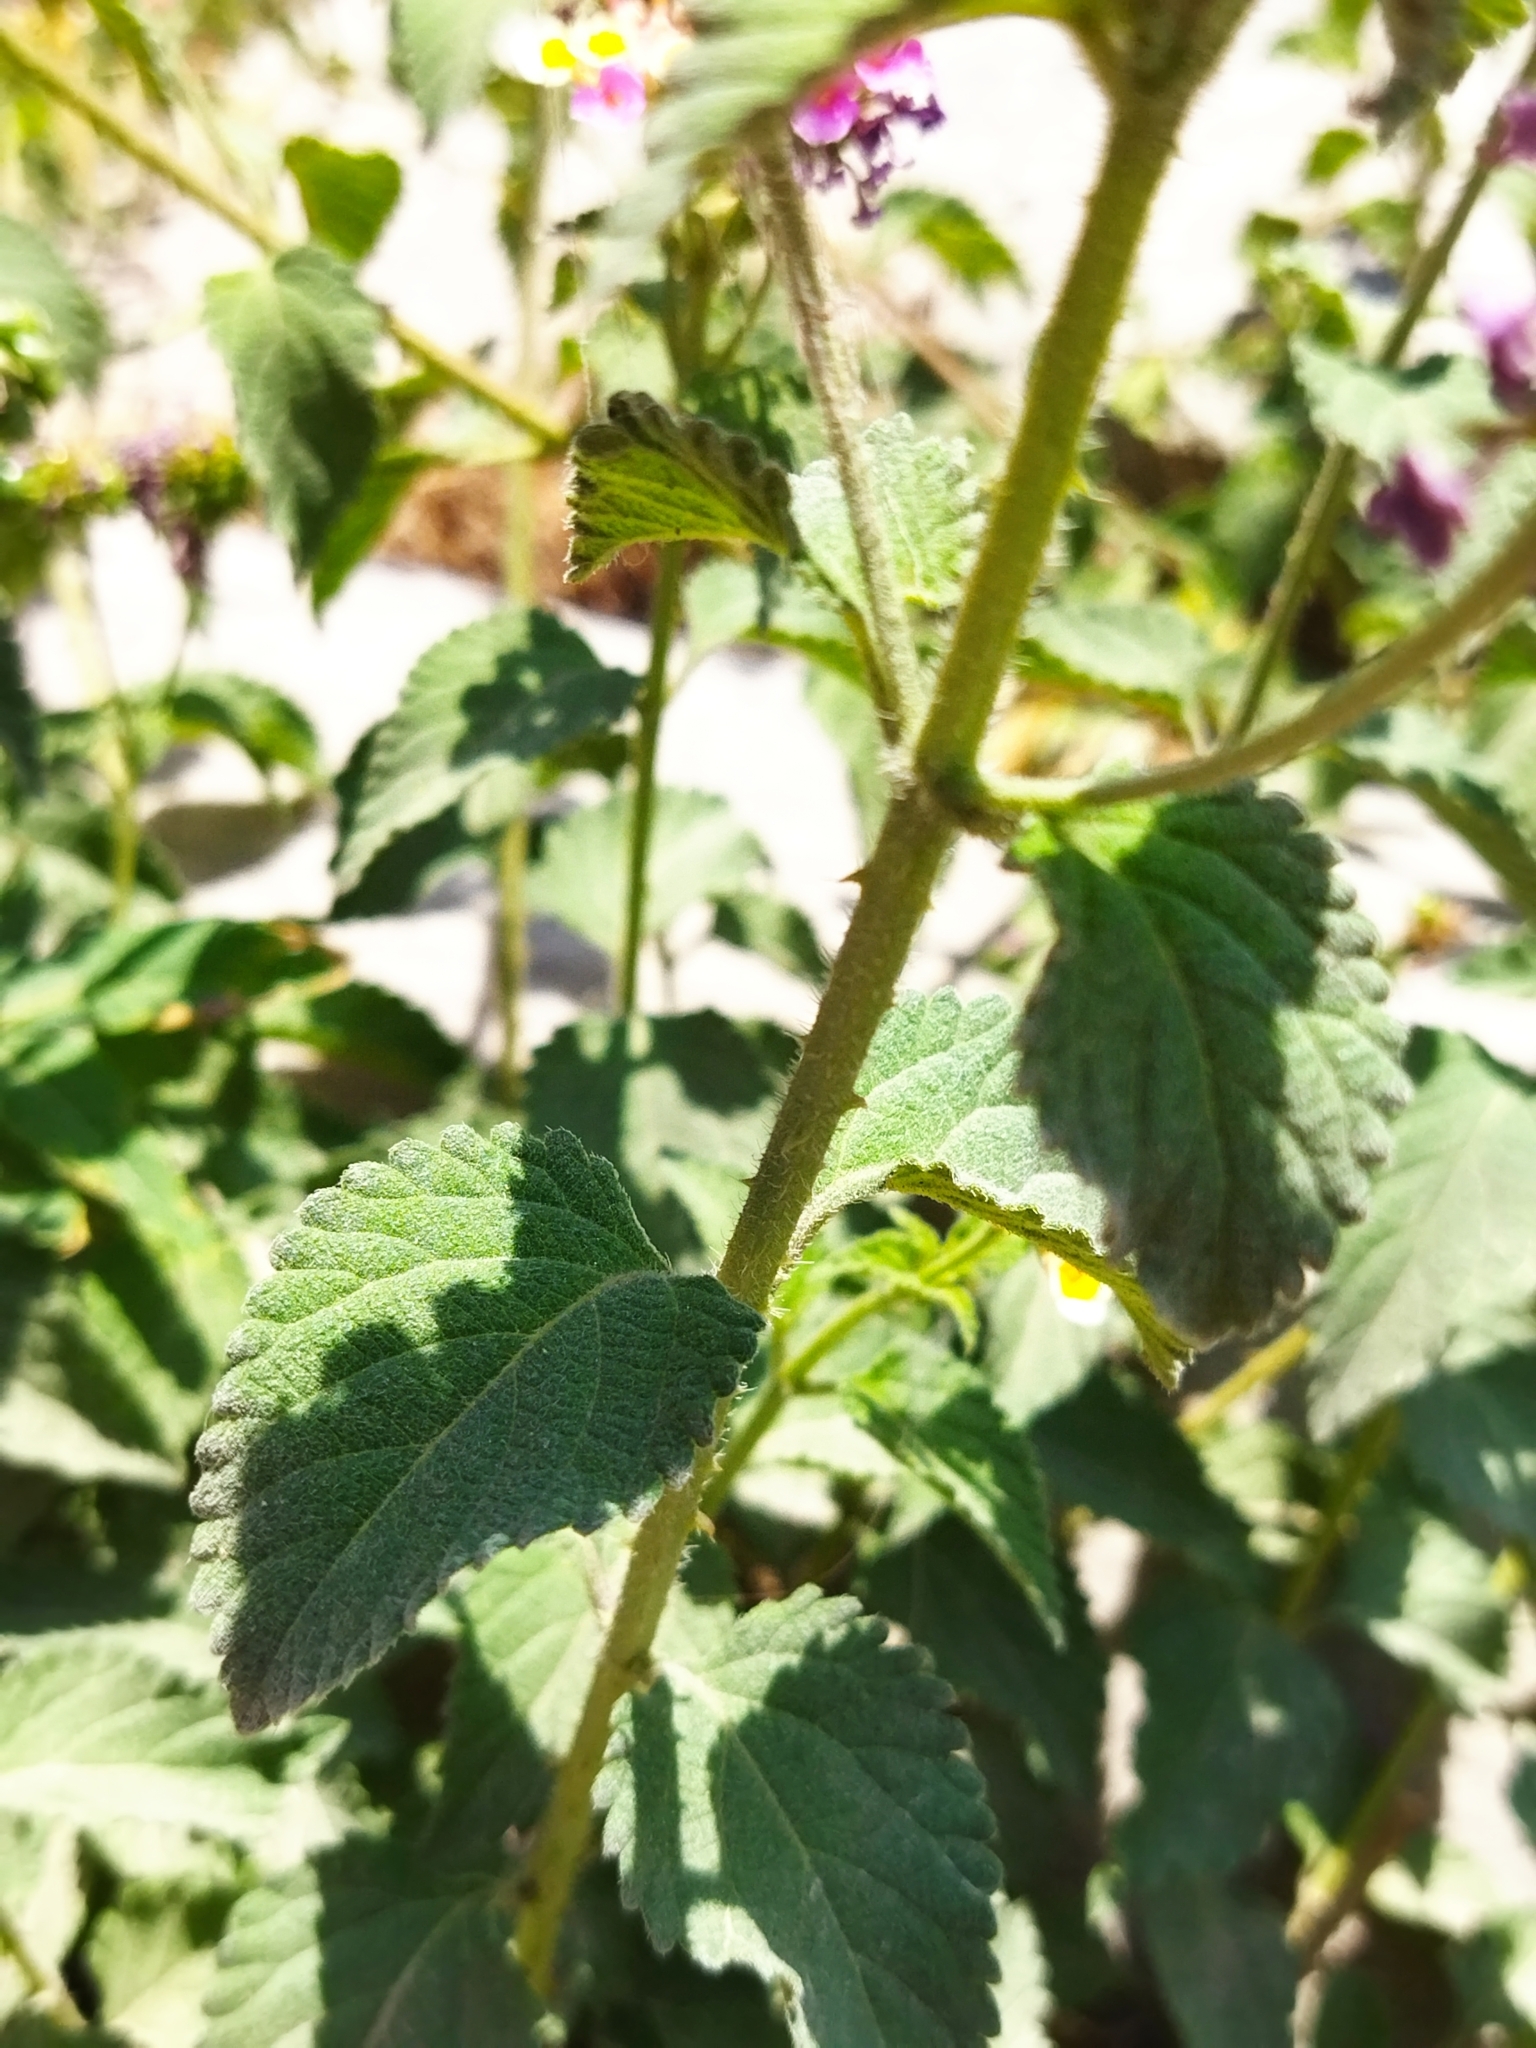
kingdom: Plantae
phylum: Tracheophyta
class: Magnoliopsida
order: Lamiales
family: Verbenaceae
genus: Lantana
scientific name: Lantana camara
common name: Lantana
